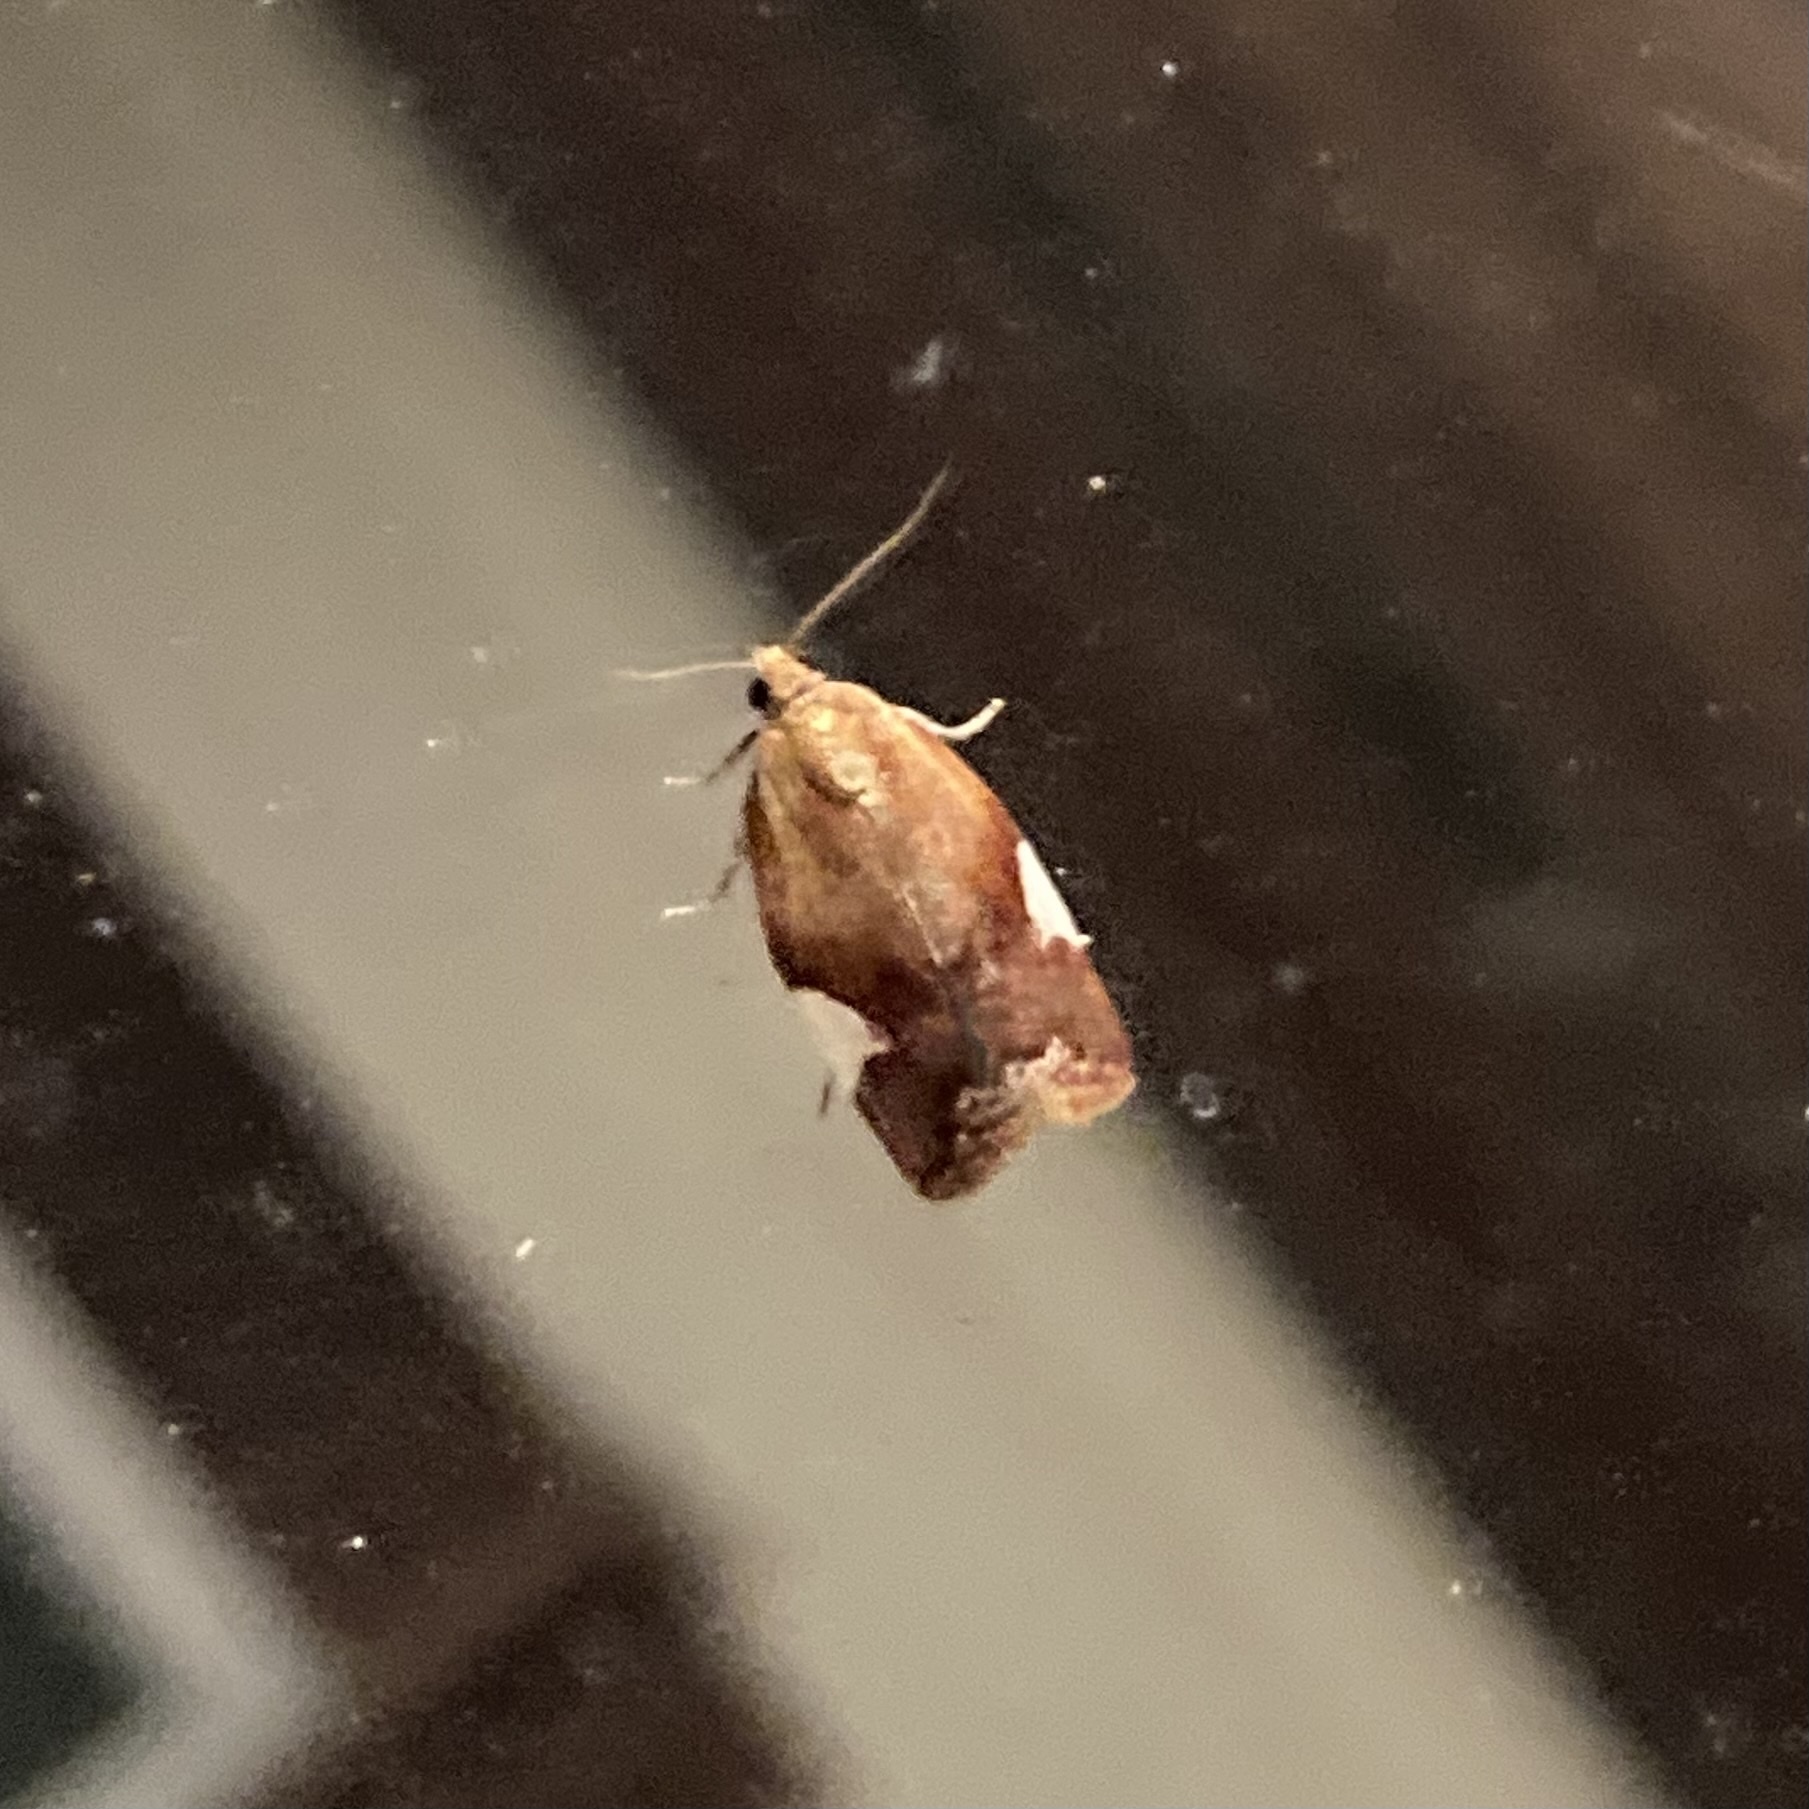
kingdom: Animalia
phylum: Arthropoda
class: Insecta
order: Lepidoptera
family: Tortricidae
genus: Clepsis
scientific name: Clepsis persicana
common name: White triangle tortrix
